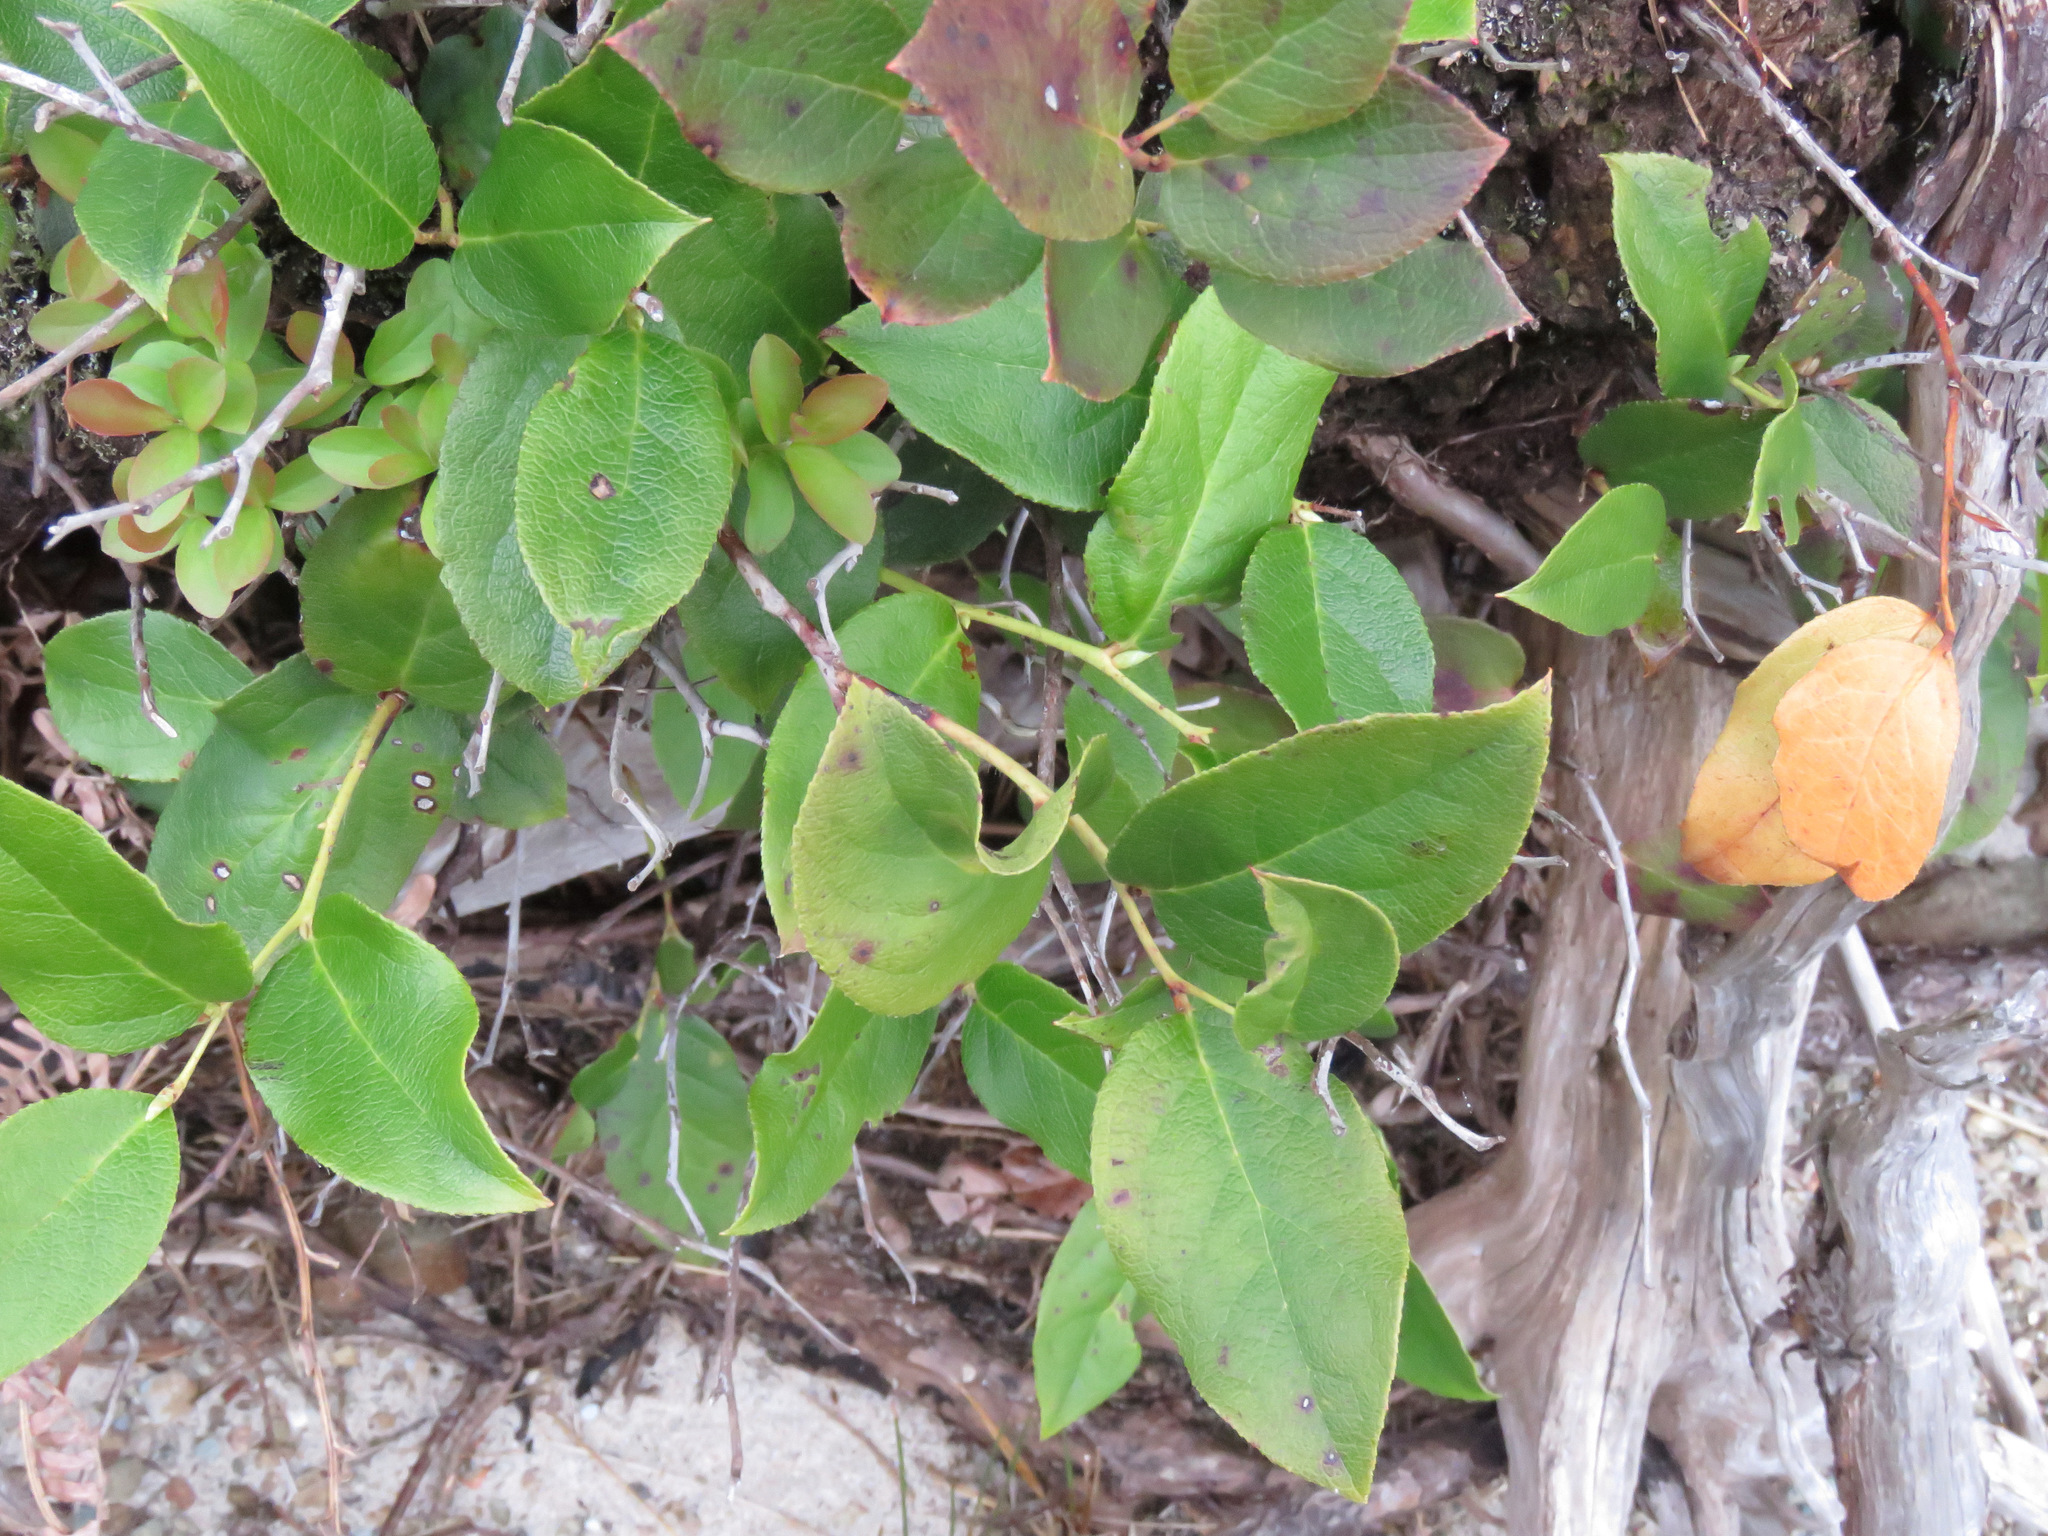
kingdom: Plantae
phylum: Tracheophyta
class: Magnoliopsida
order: Ericales
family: Ericaceae
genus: Gaultheria
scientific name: Gaultheria shallon
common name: Shallon
